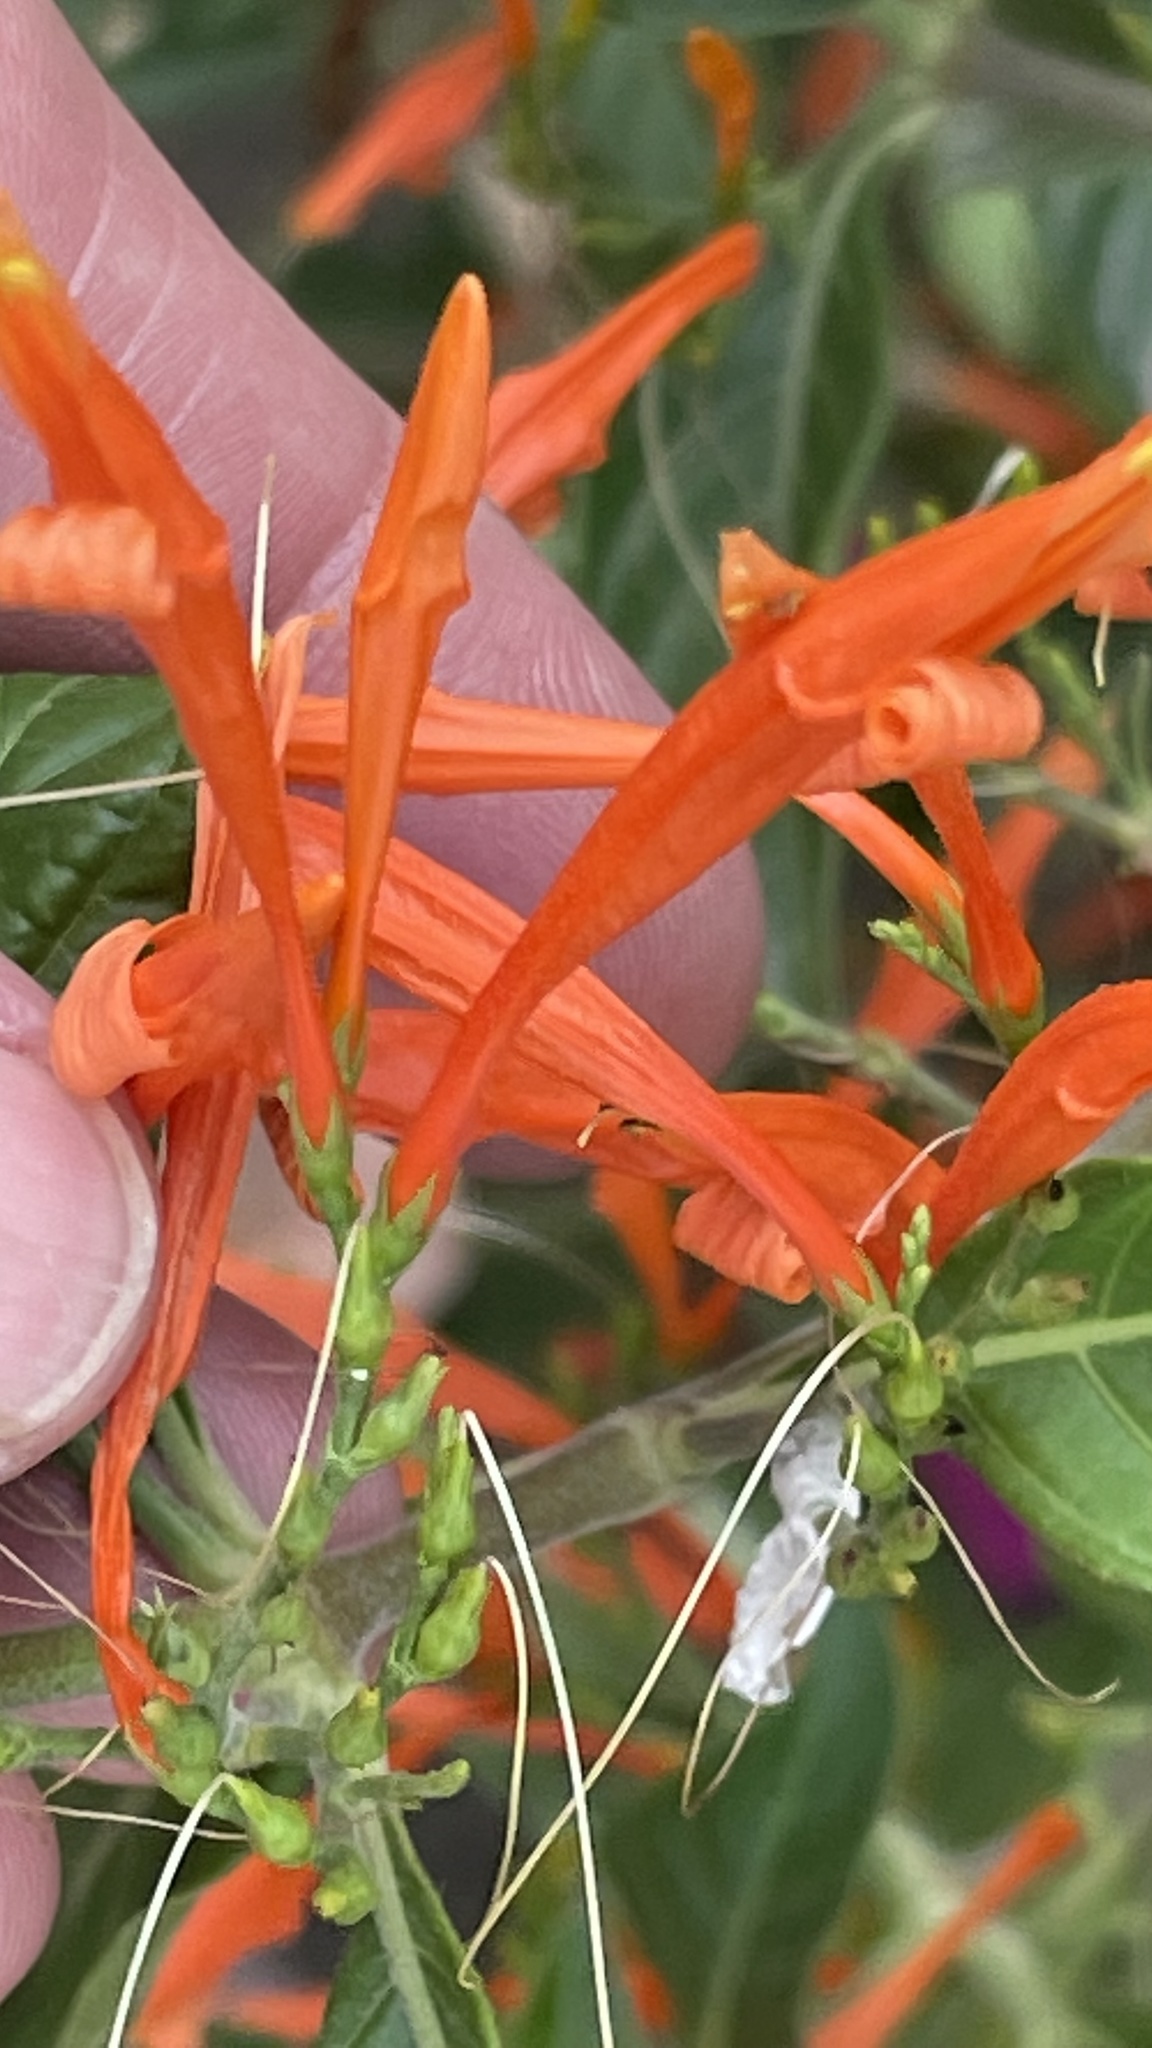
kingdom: Plantae
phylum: Tracheophyta
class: Magnoliopsida
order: Lamiales
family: Acanthaceae
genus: Justicia
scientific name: Justicia spicigera
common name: Mohintli
